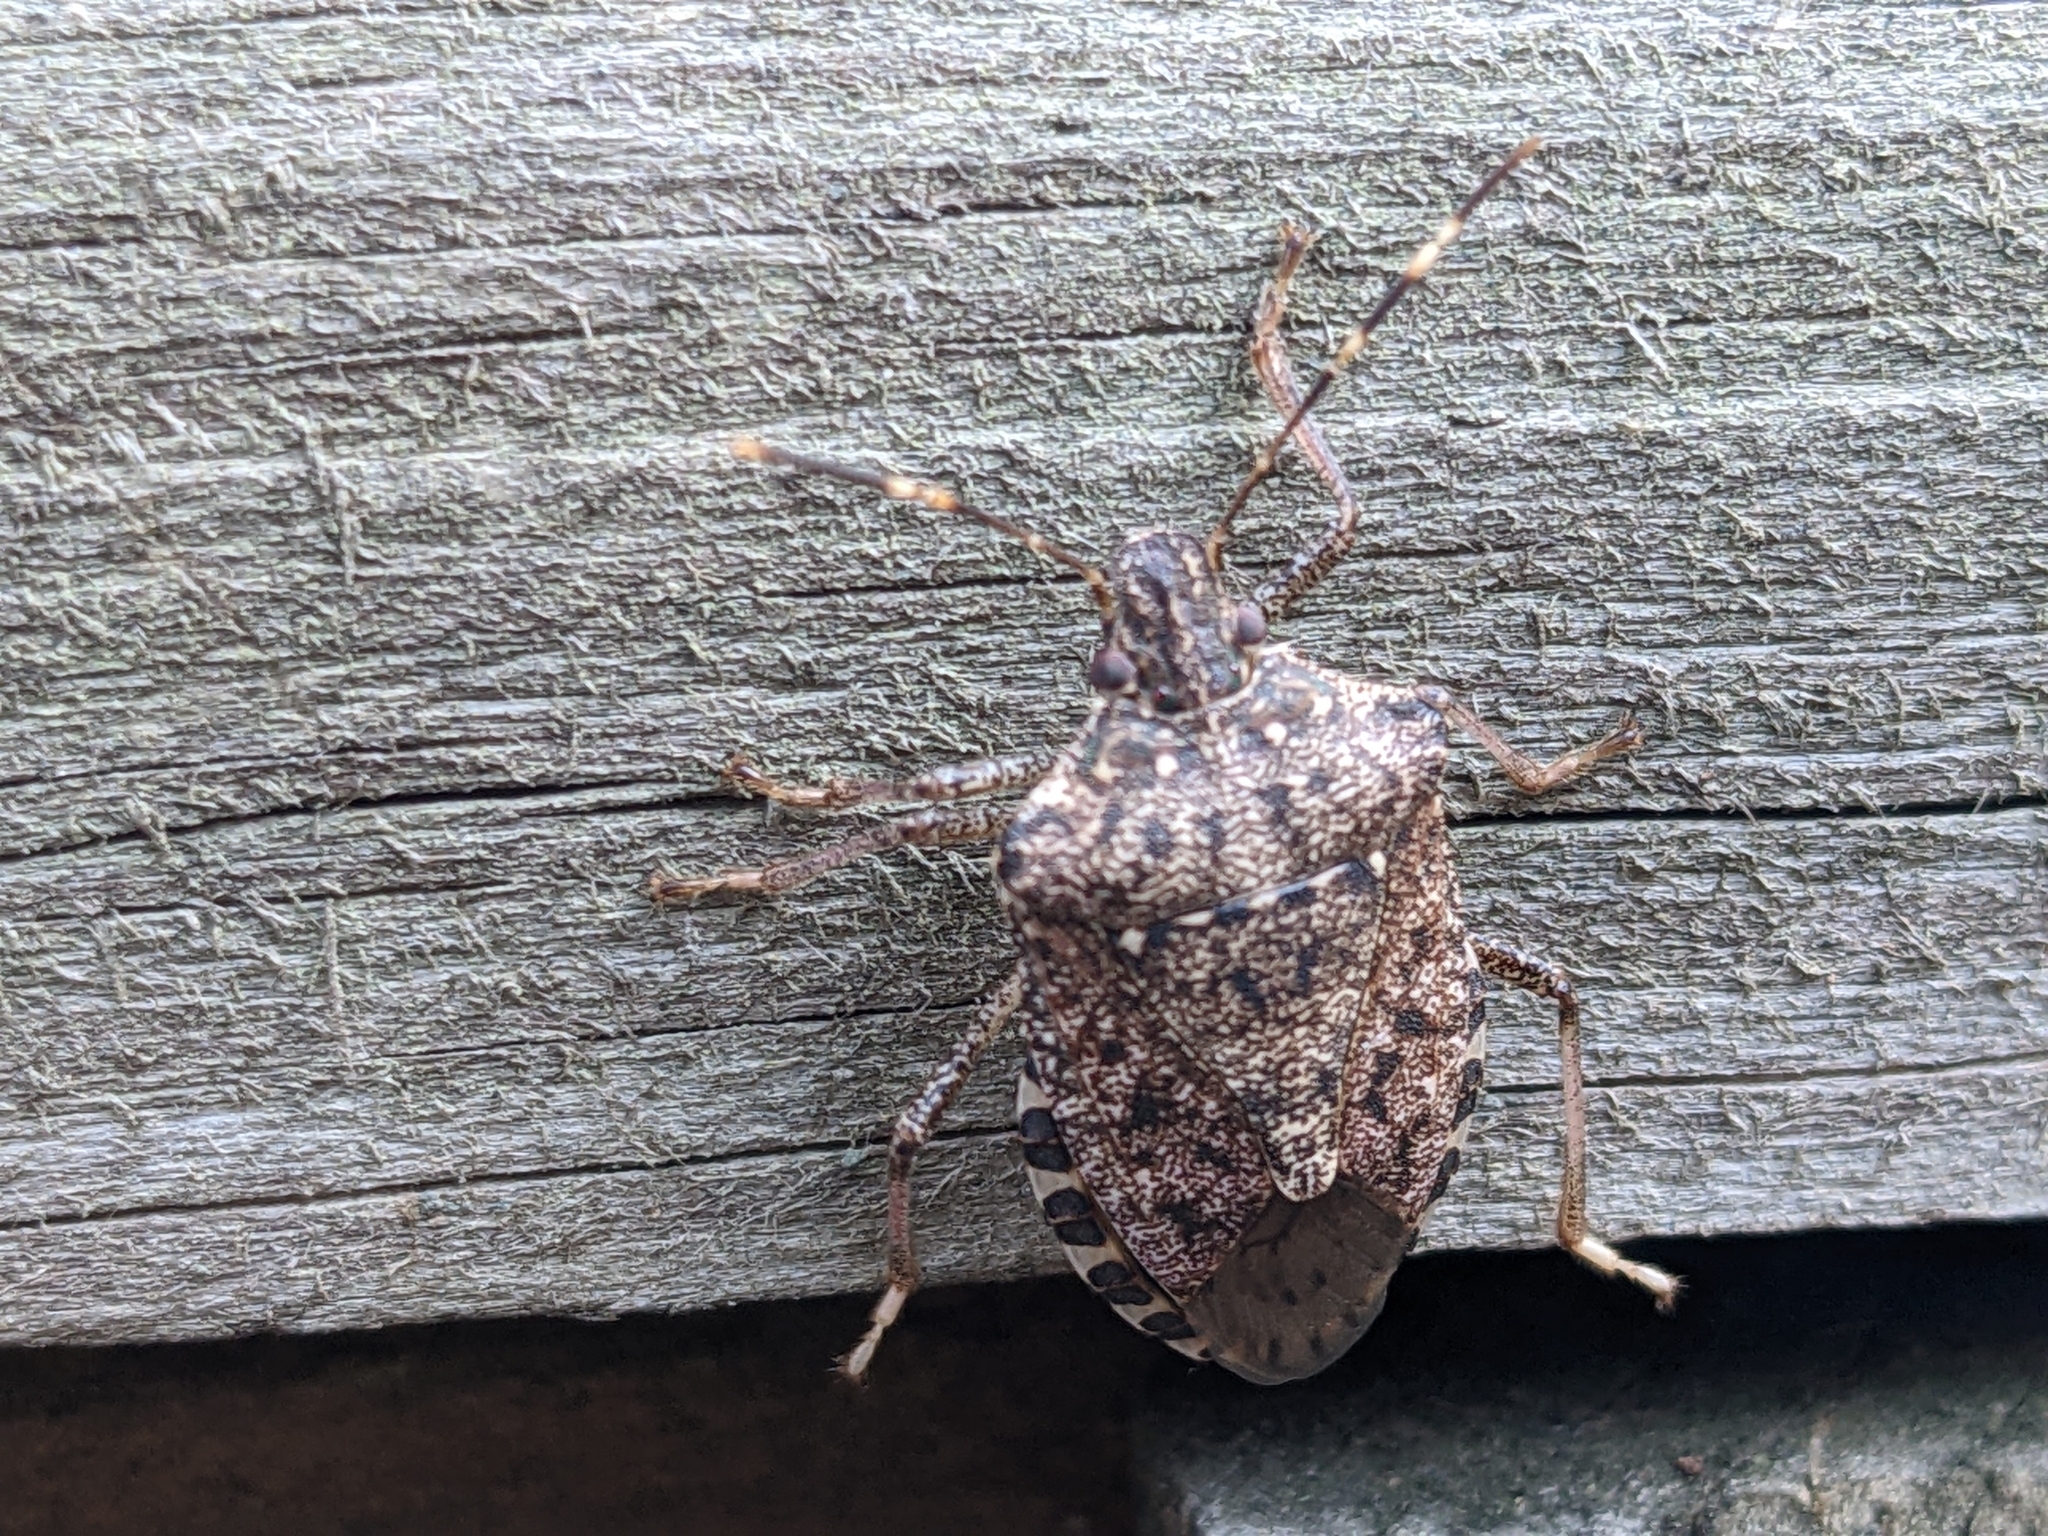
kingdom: Animalia
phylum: Arthropoda
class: Insecta
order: Hemiptera
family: Pentatomidae
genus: Halyomorpha
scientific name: Halyomorpha halys
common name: Brown marmorated stink bug
